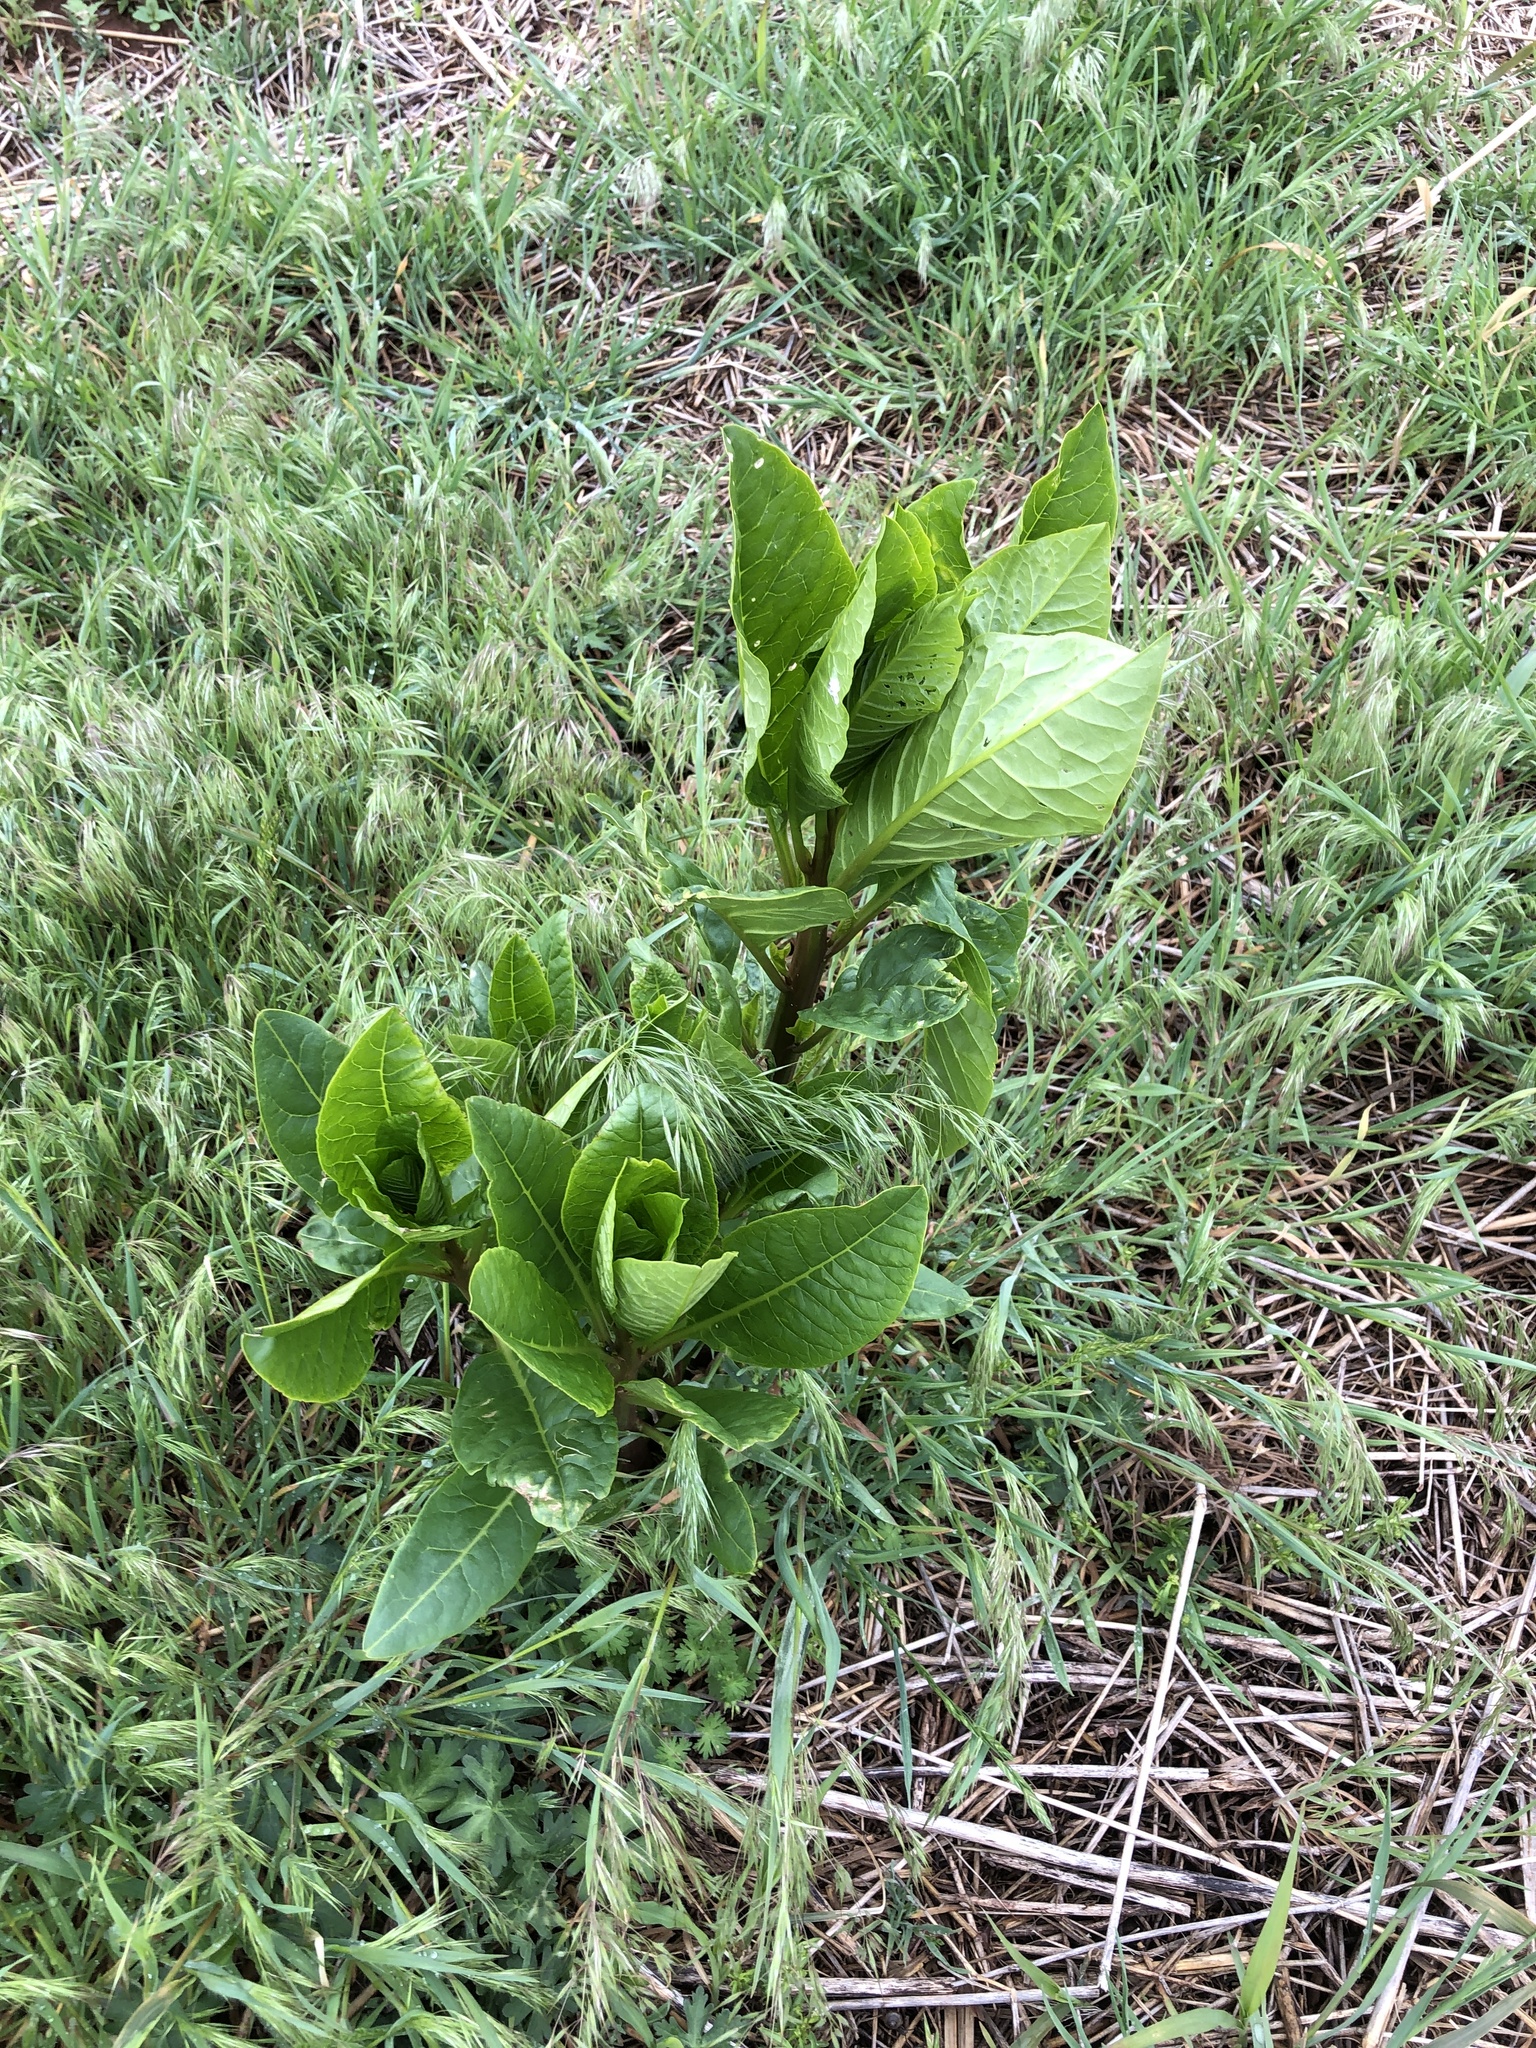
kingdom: Plantae
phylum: Tracheophyta
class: Magnoliopsida
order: Caryophyllales
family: Phytolaccaceae
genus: Phytolacca
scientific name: Phytolacca americana
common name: American pokeweed
